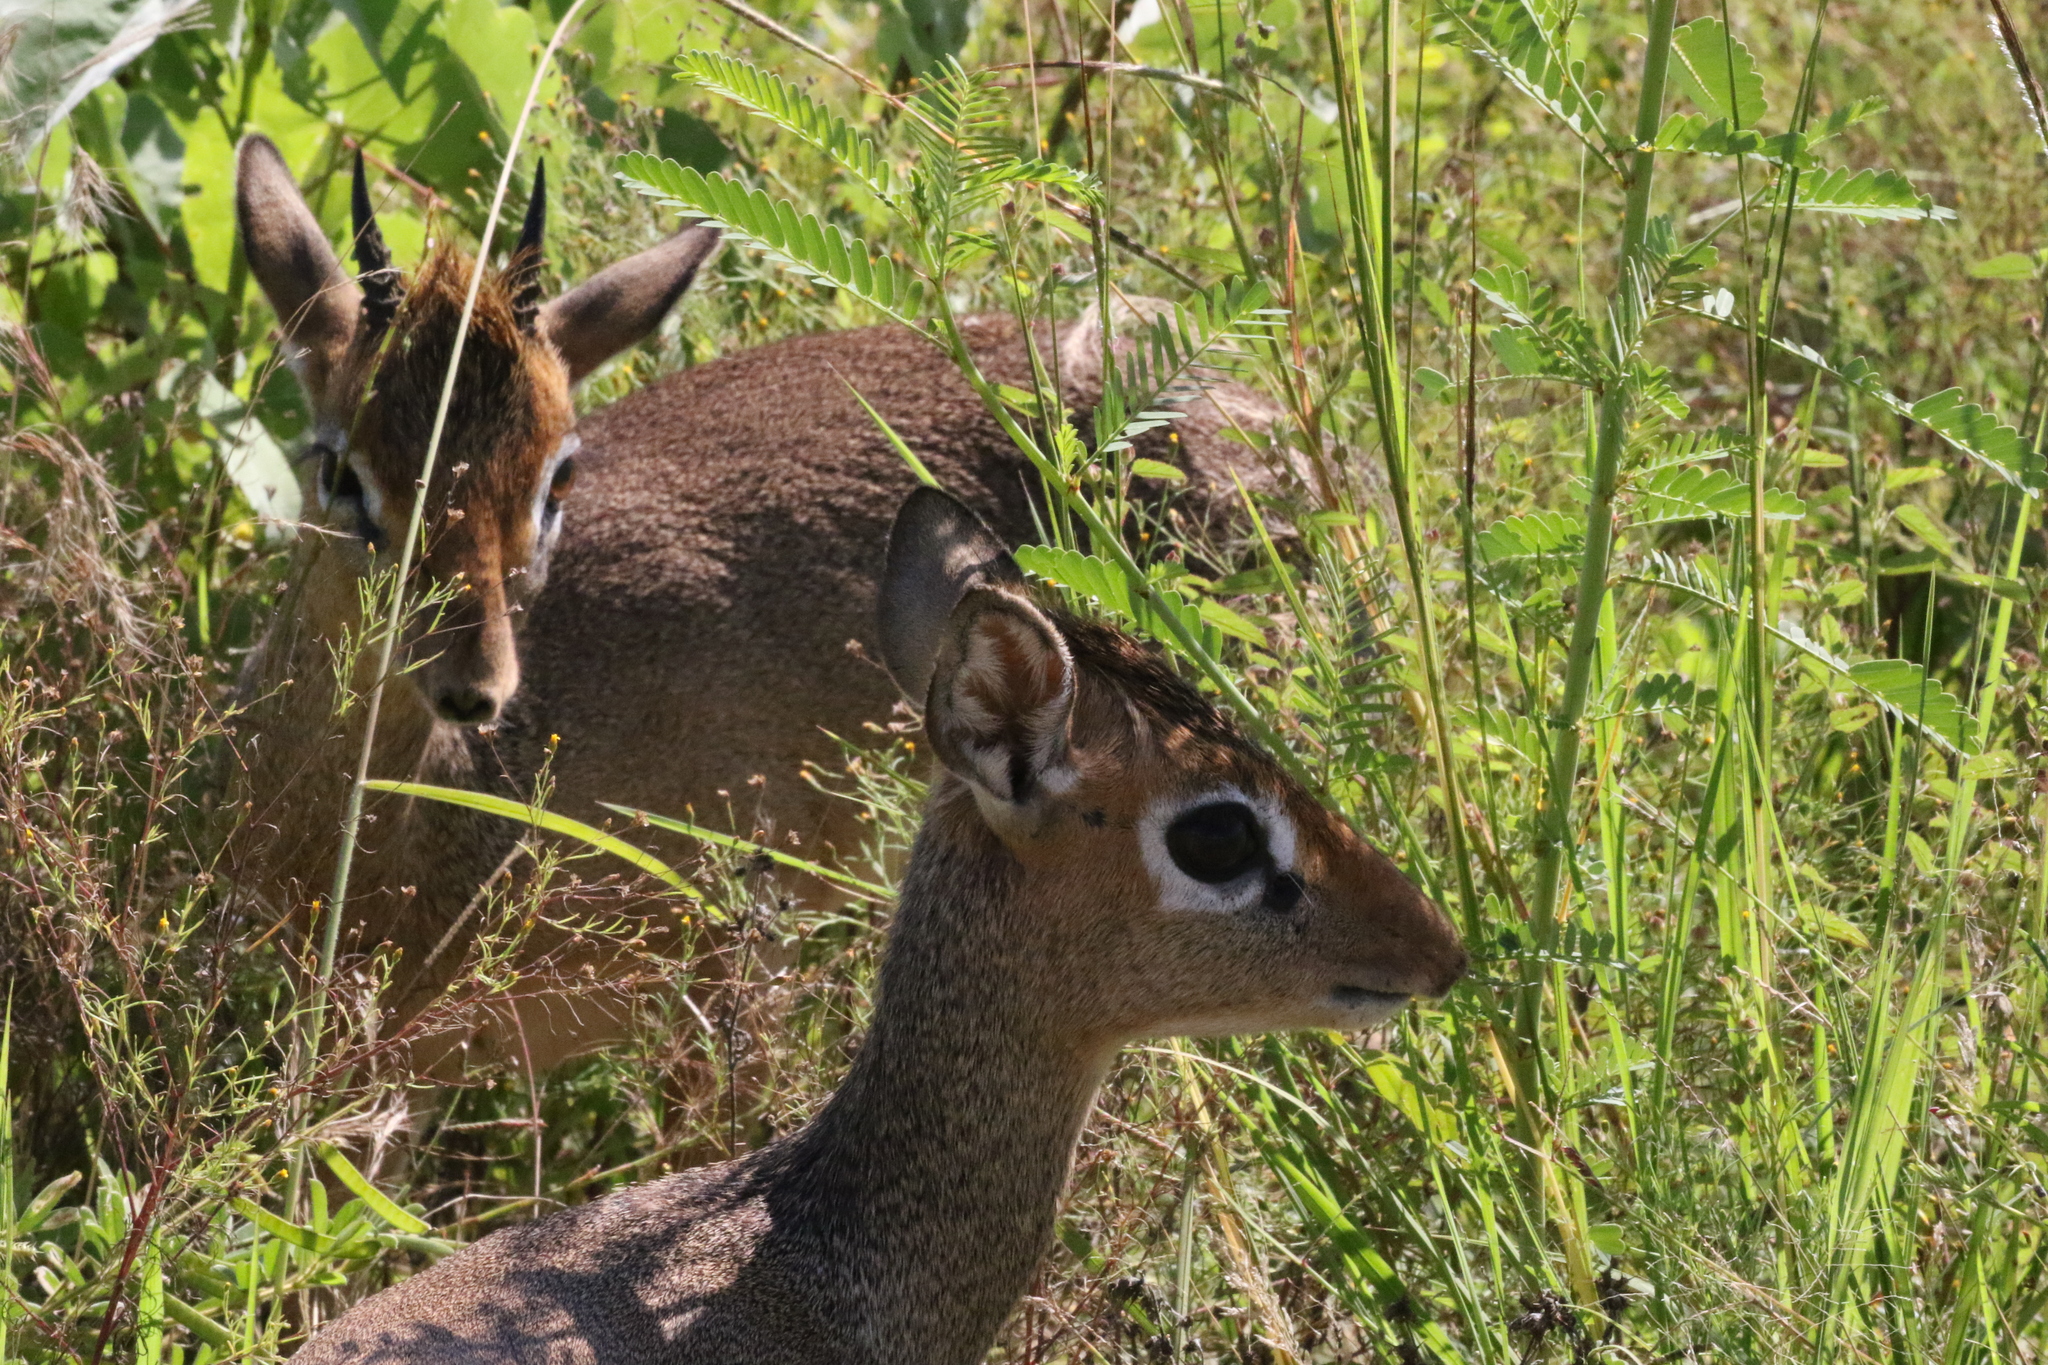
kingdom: Animalia
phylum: Chordata
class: Mammalia
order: Artiodactyla
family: Bovidae
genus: Madoqua
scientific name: Madoqua
